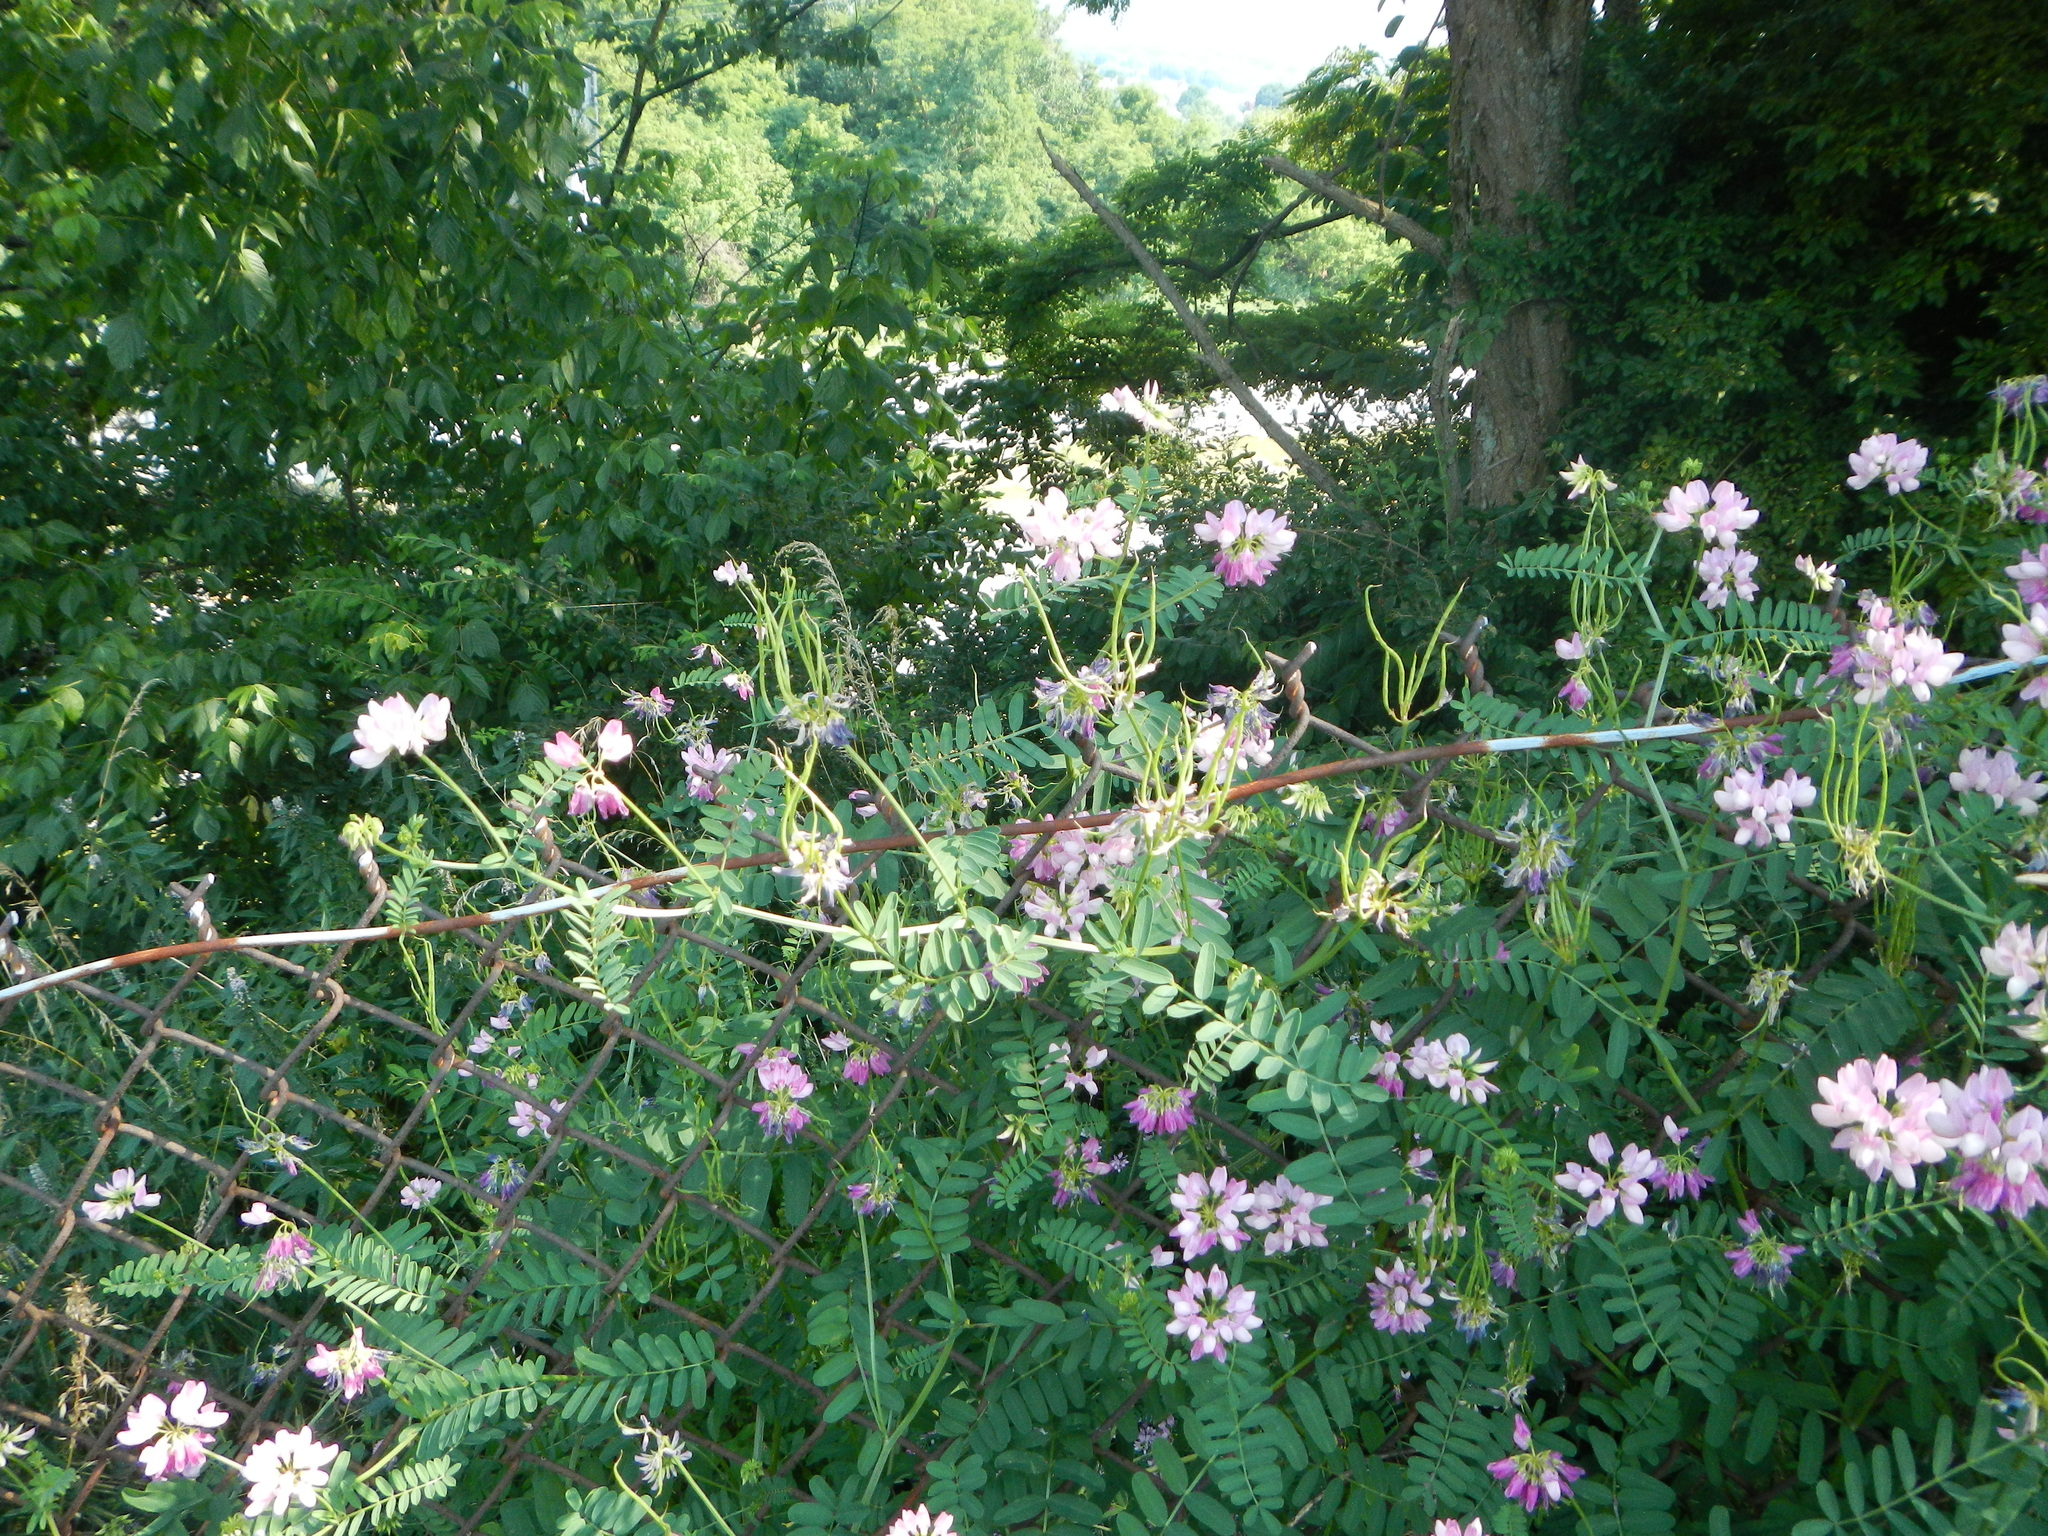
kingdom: Plantae
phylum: Tracheophyta
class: Magnoliopsida
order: Fabales
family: Fabaceae
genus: Coronilla
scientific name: Coronilla varia
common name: Crownvetch
